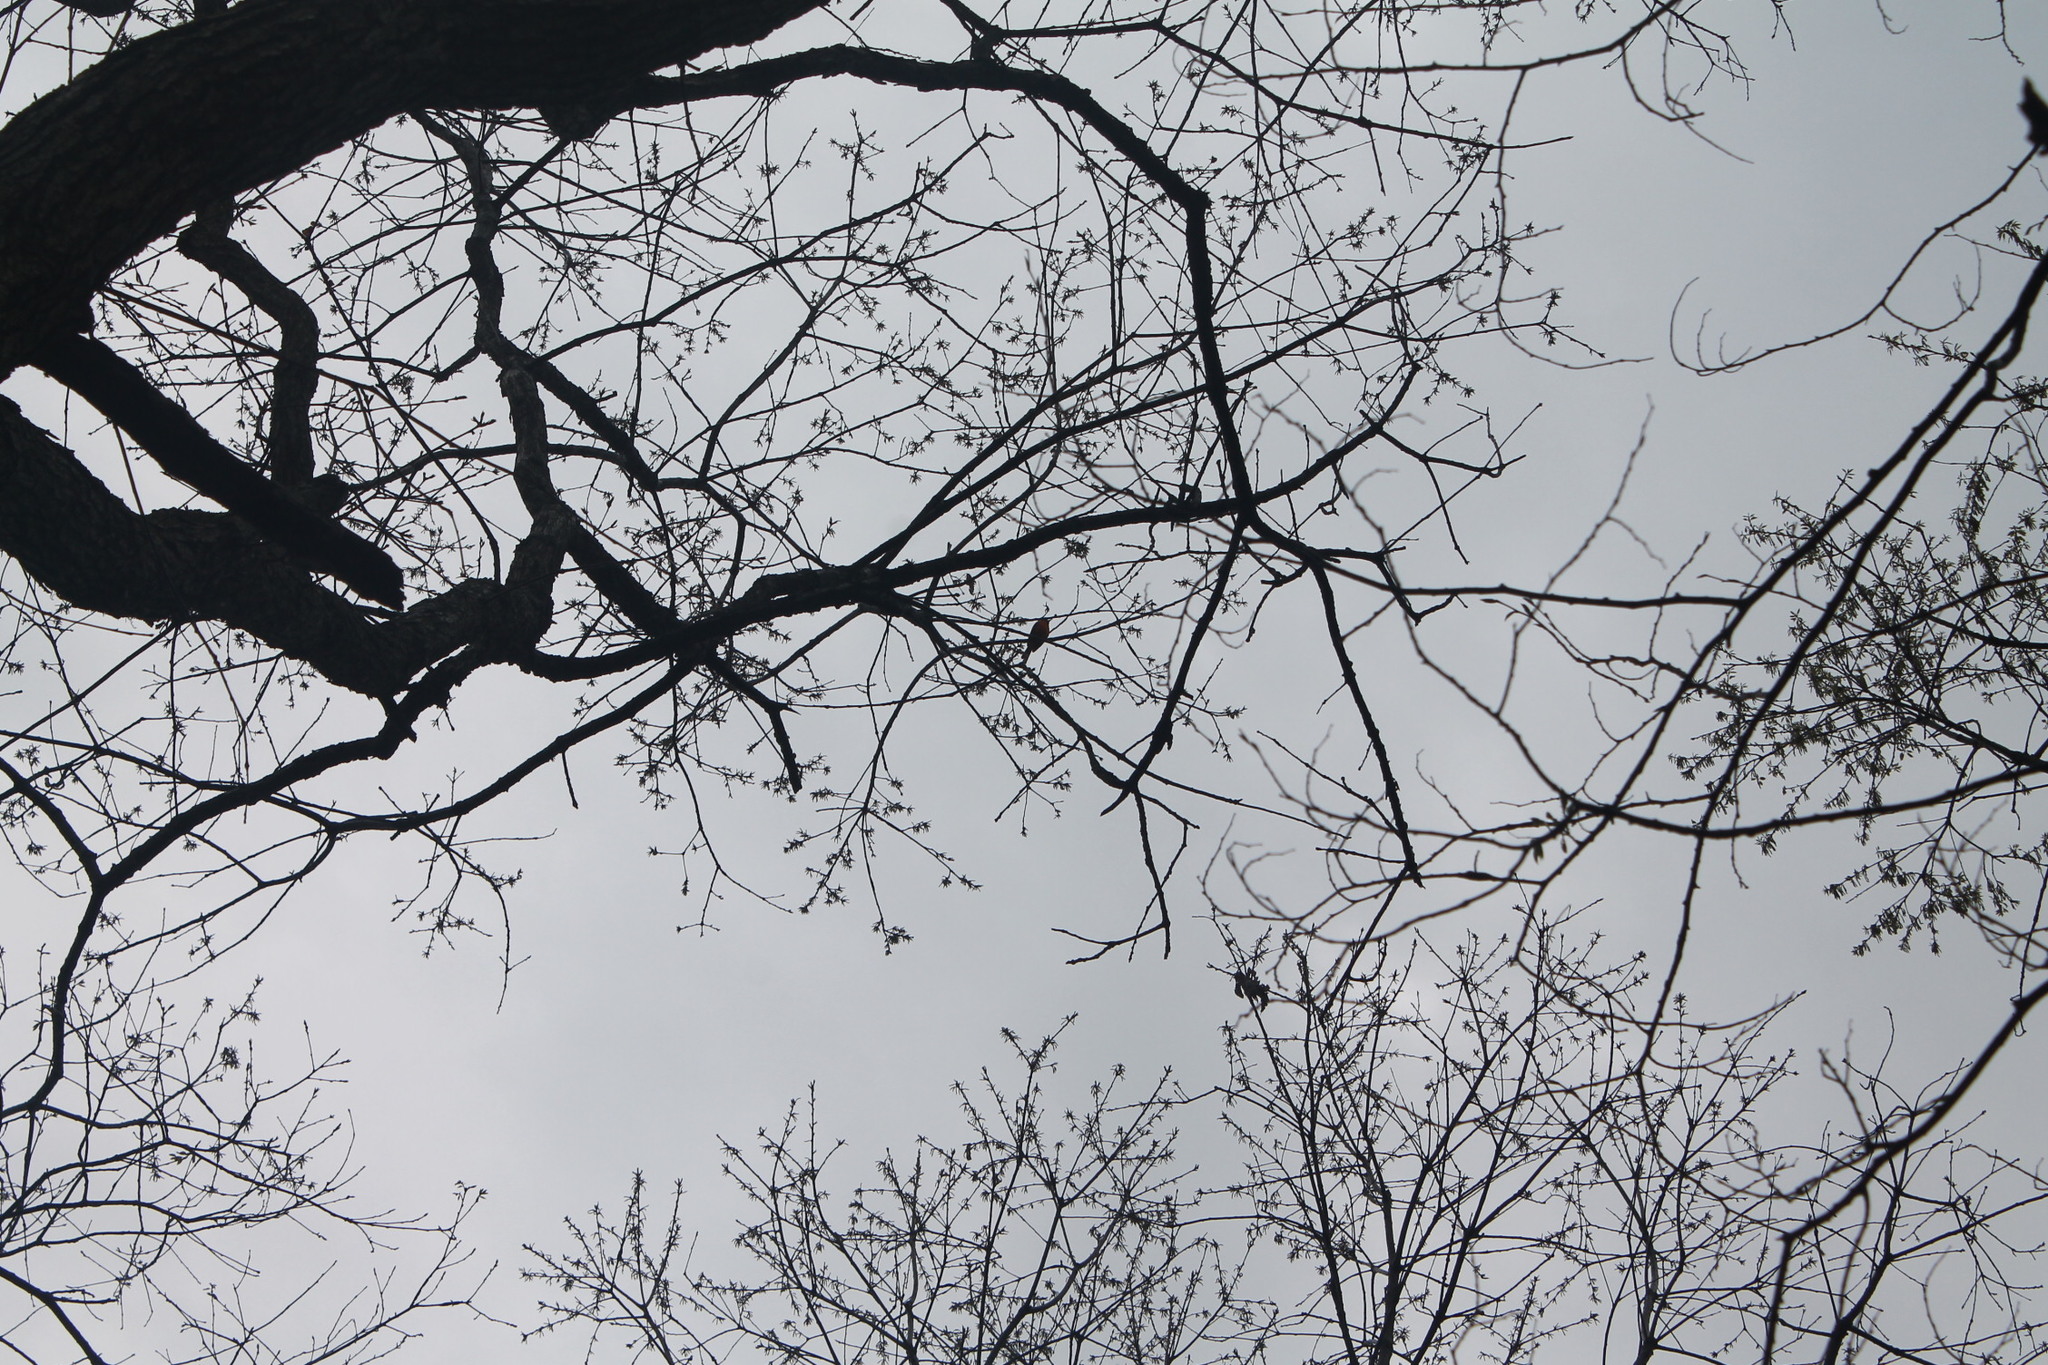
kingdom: Animalia
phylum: Chordata
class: Aves
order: Passeriformes
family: Icteridae
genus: Icterus
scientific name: Icterus galbula
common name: Baltimore oriole
